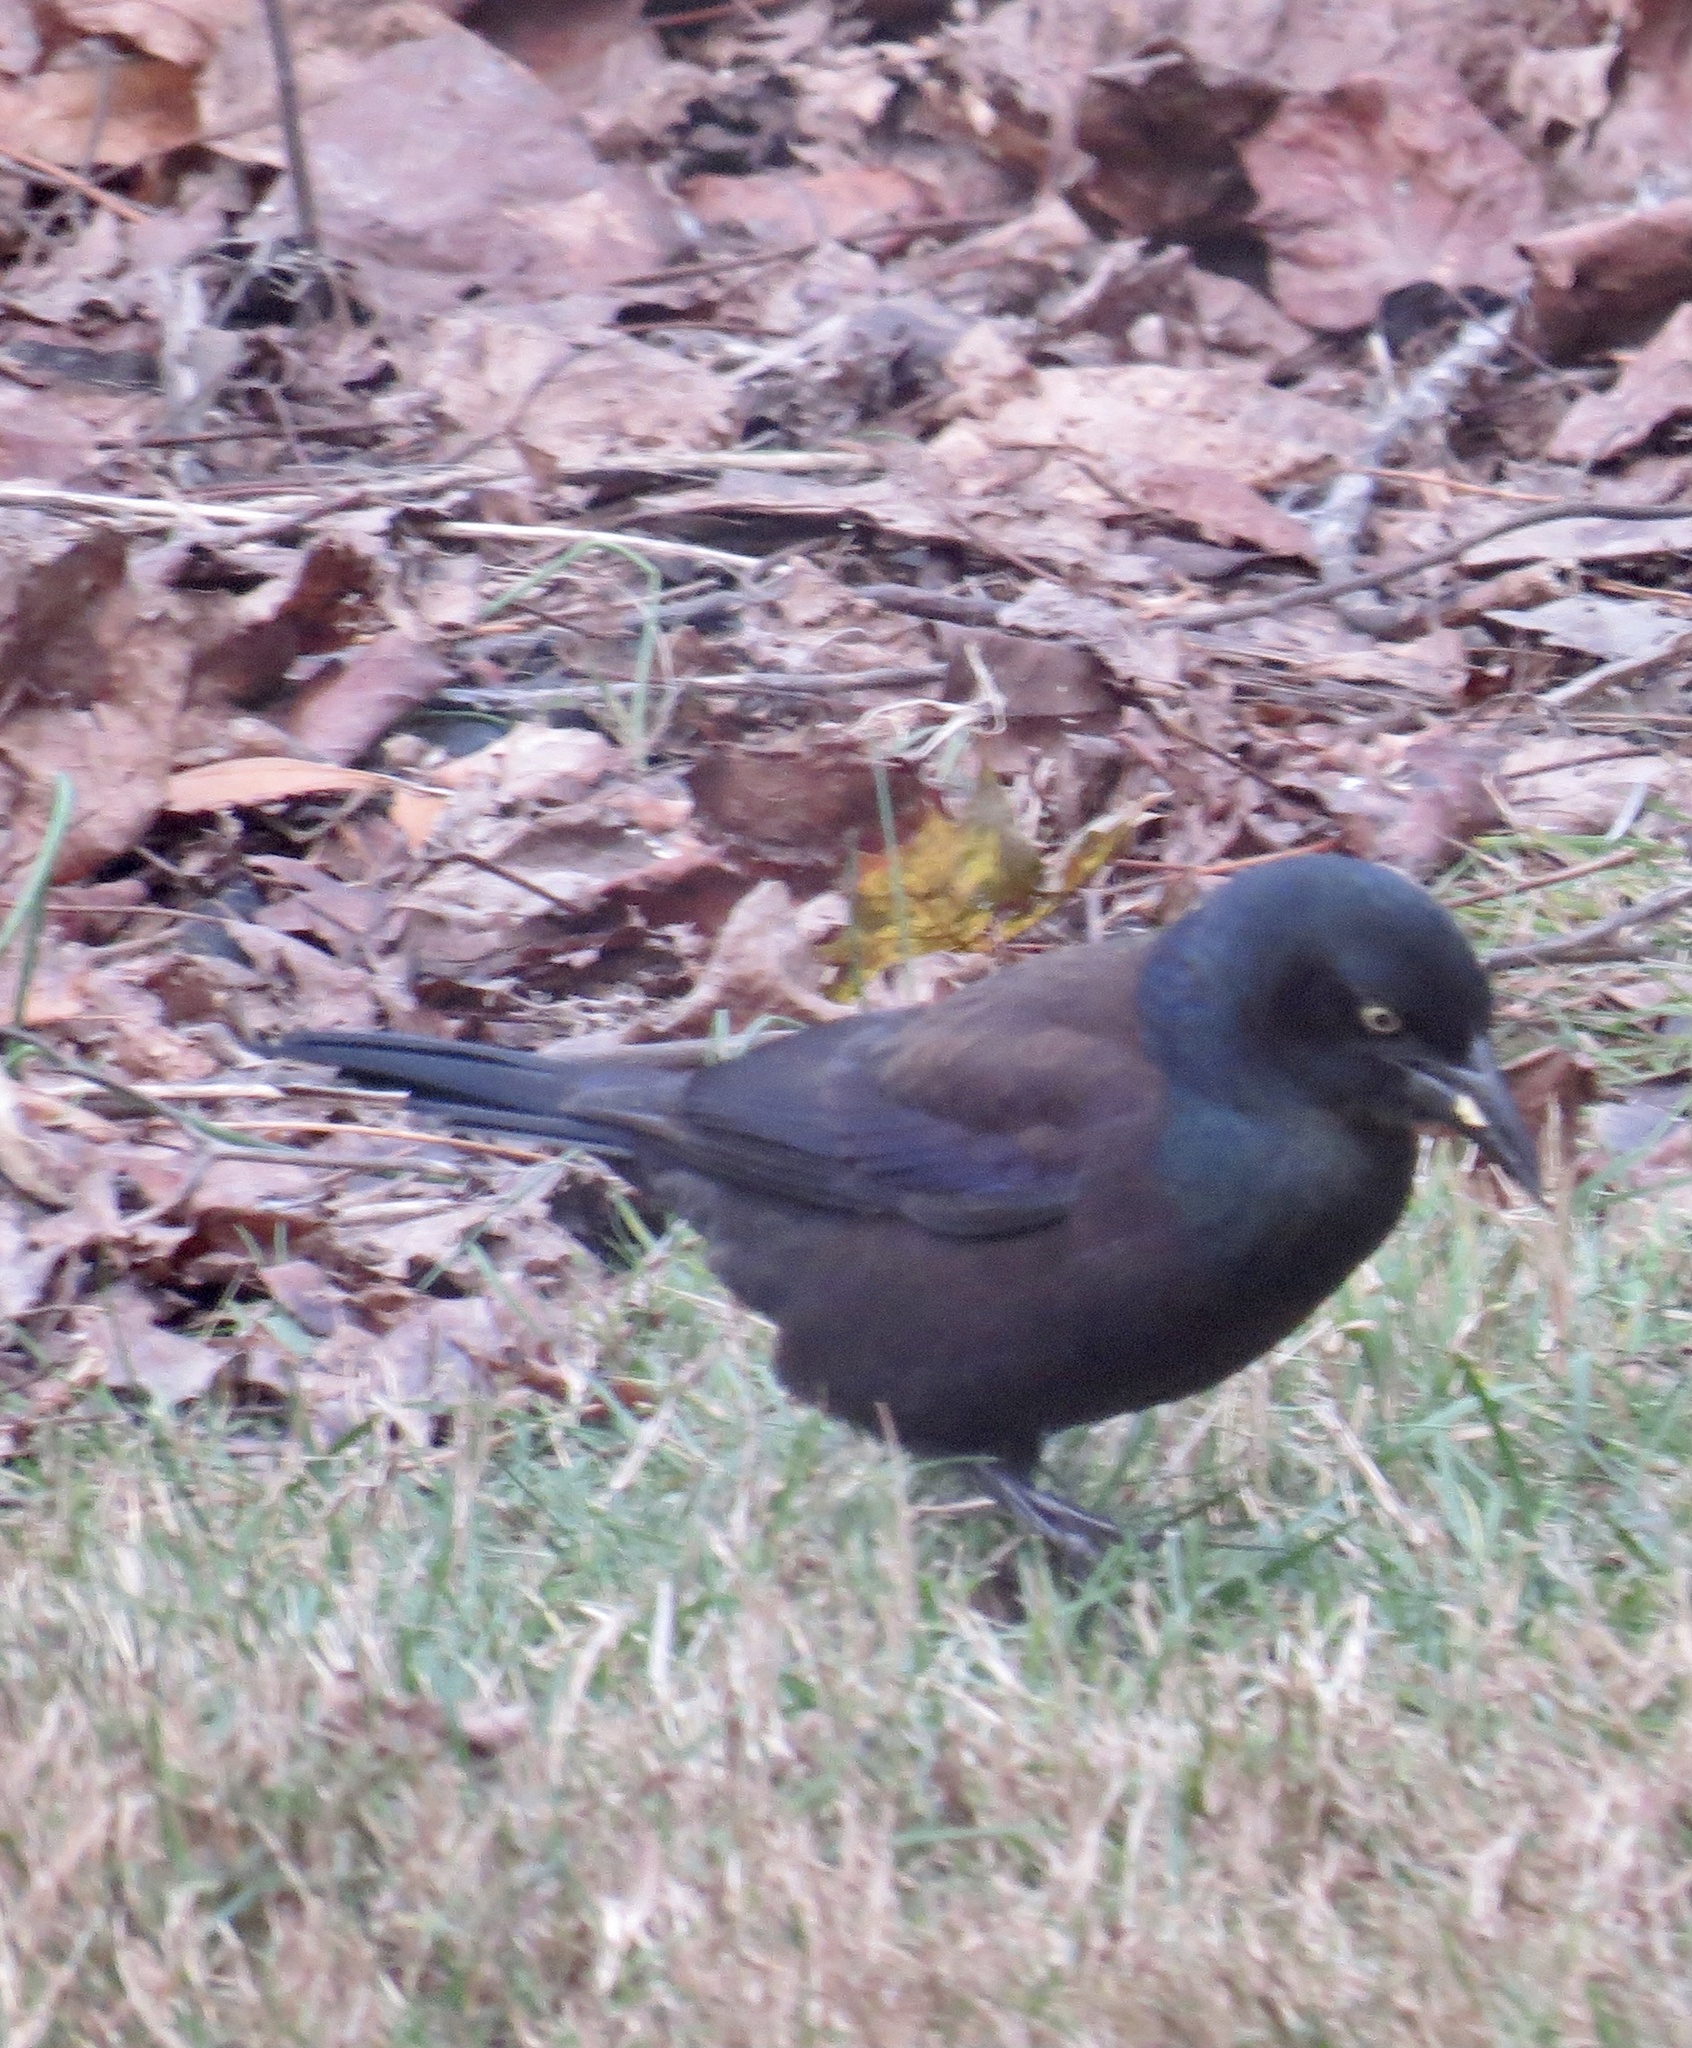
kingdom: Animalia
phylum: Chordata
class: Aves
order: Passeriformes
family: Icteridae
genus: Quiscalus
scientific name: Quiscalus quiscula
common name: Common grackle
